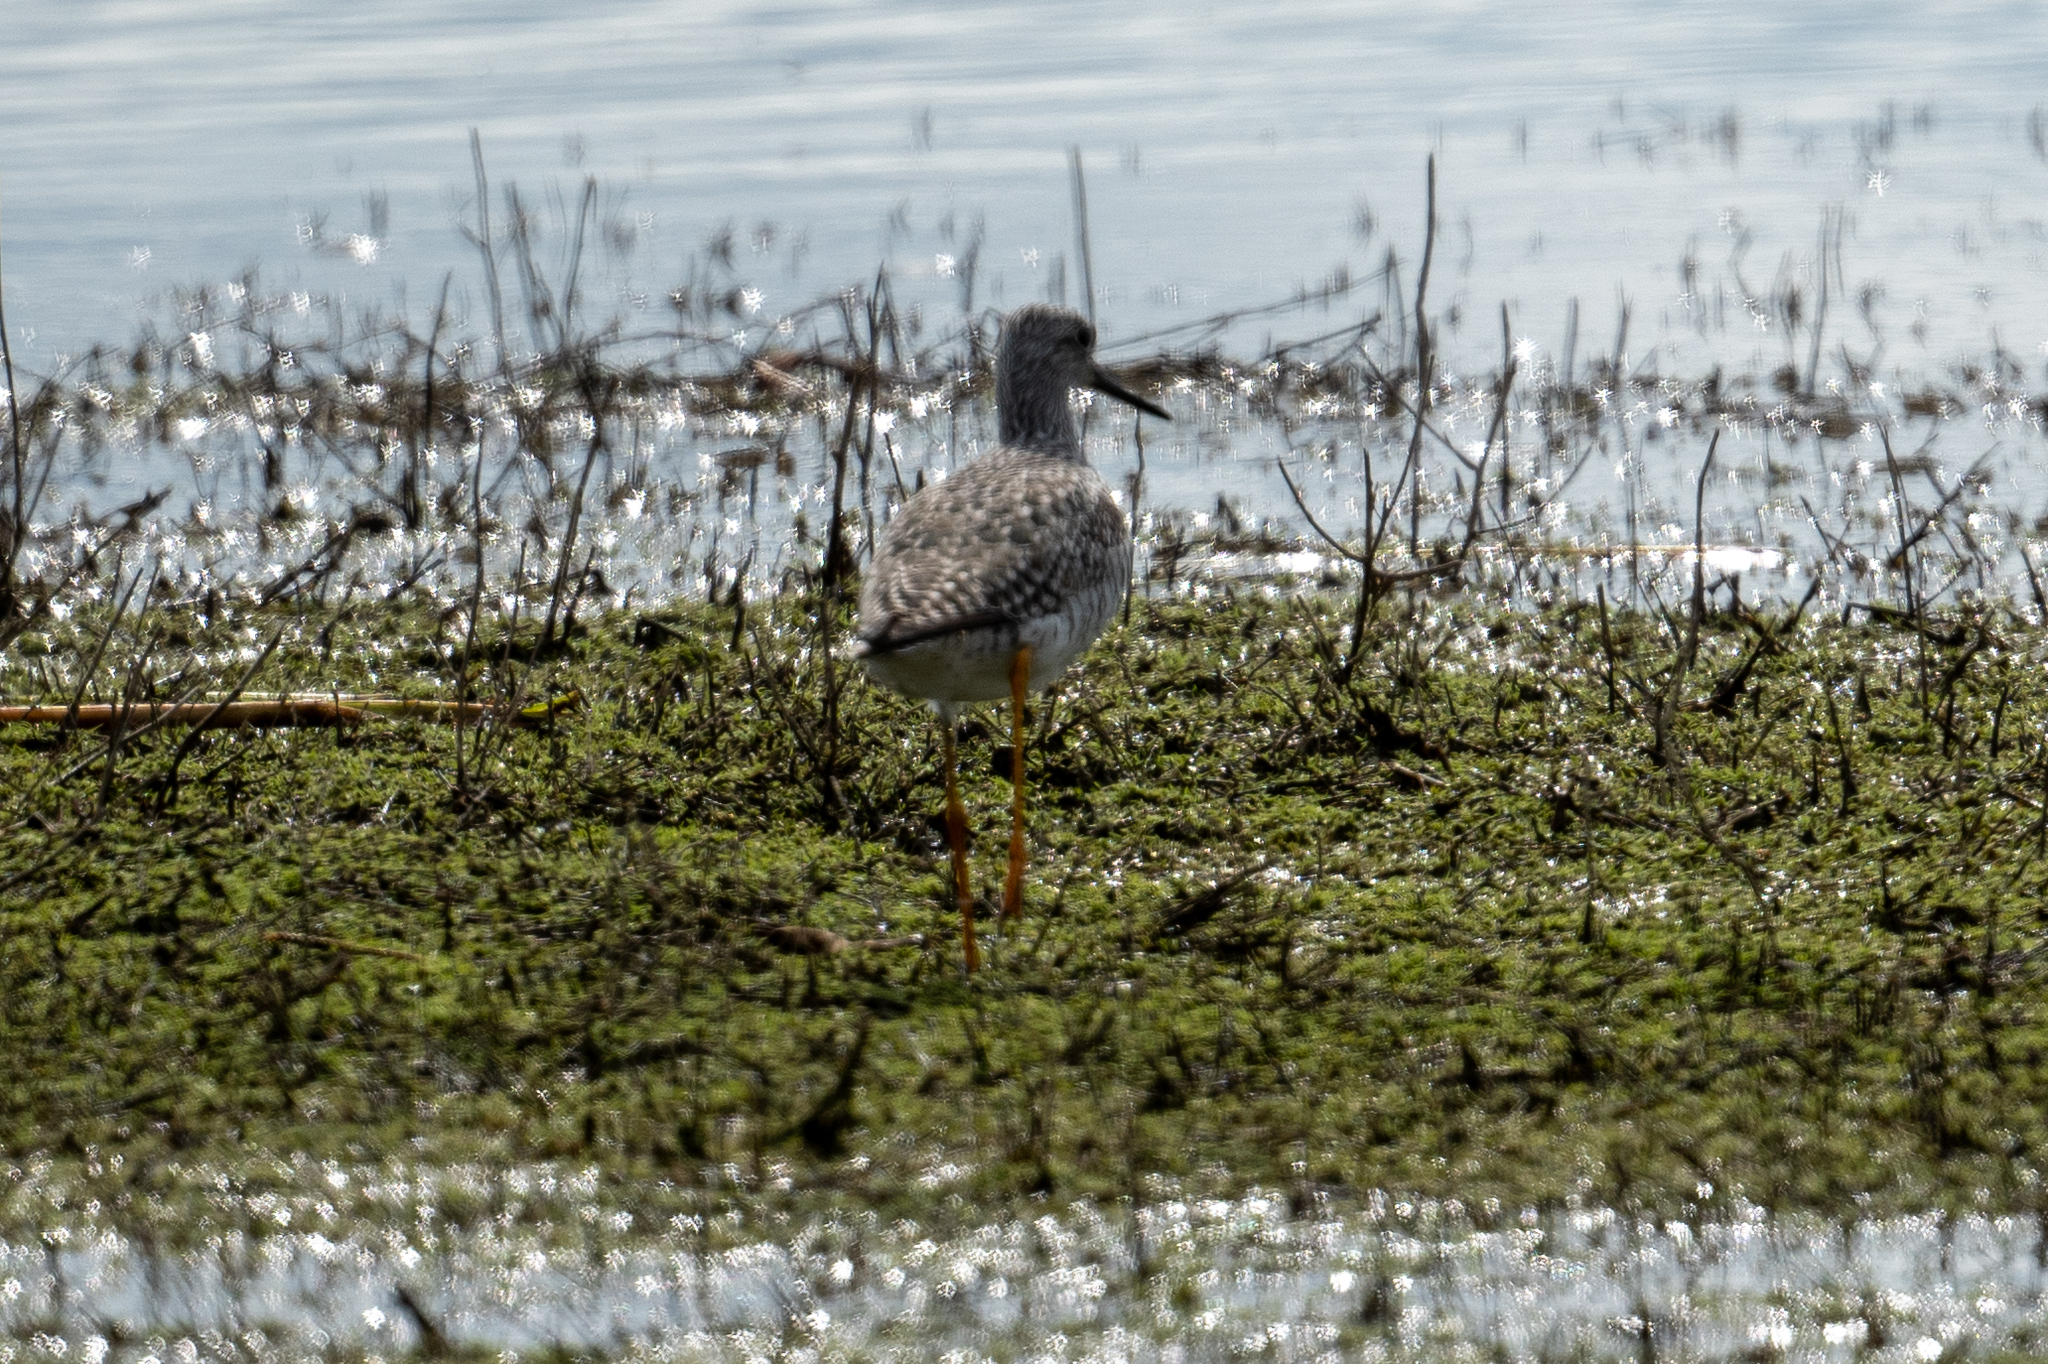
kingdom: Animalia
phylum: Chordata
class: Aves
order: Charadriiformes
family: Scolopacidae
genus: Tringa
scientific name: Tringa melanoleuca
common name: Greater yellowlegs
